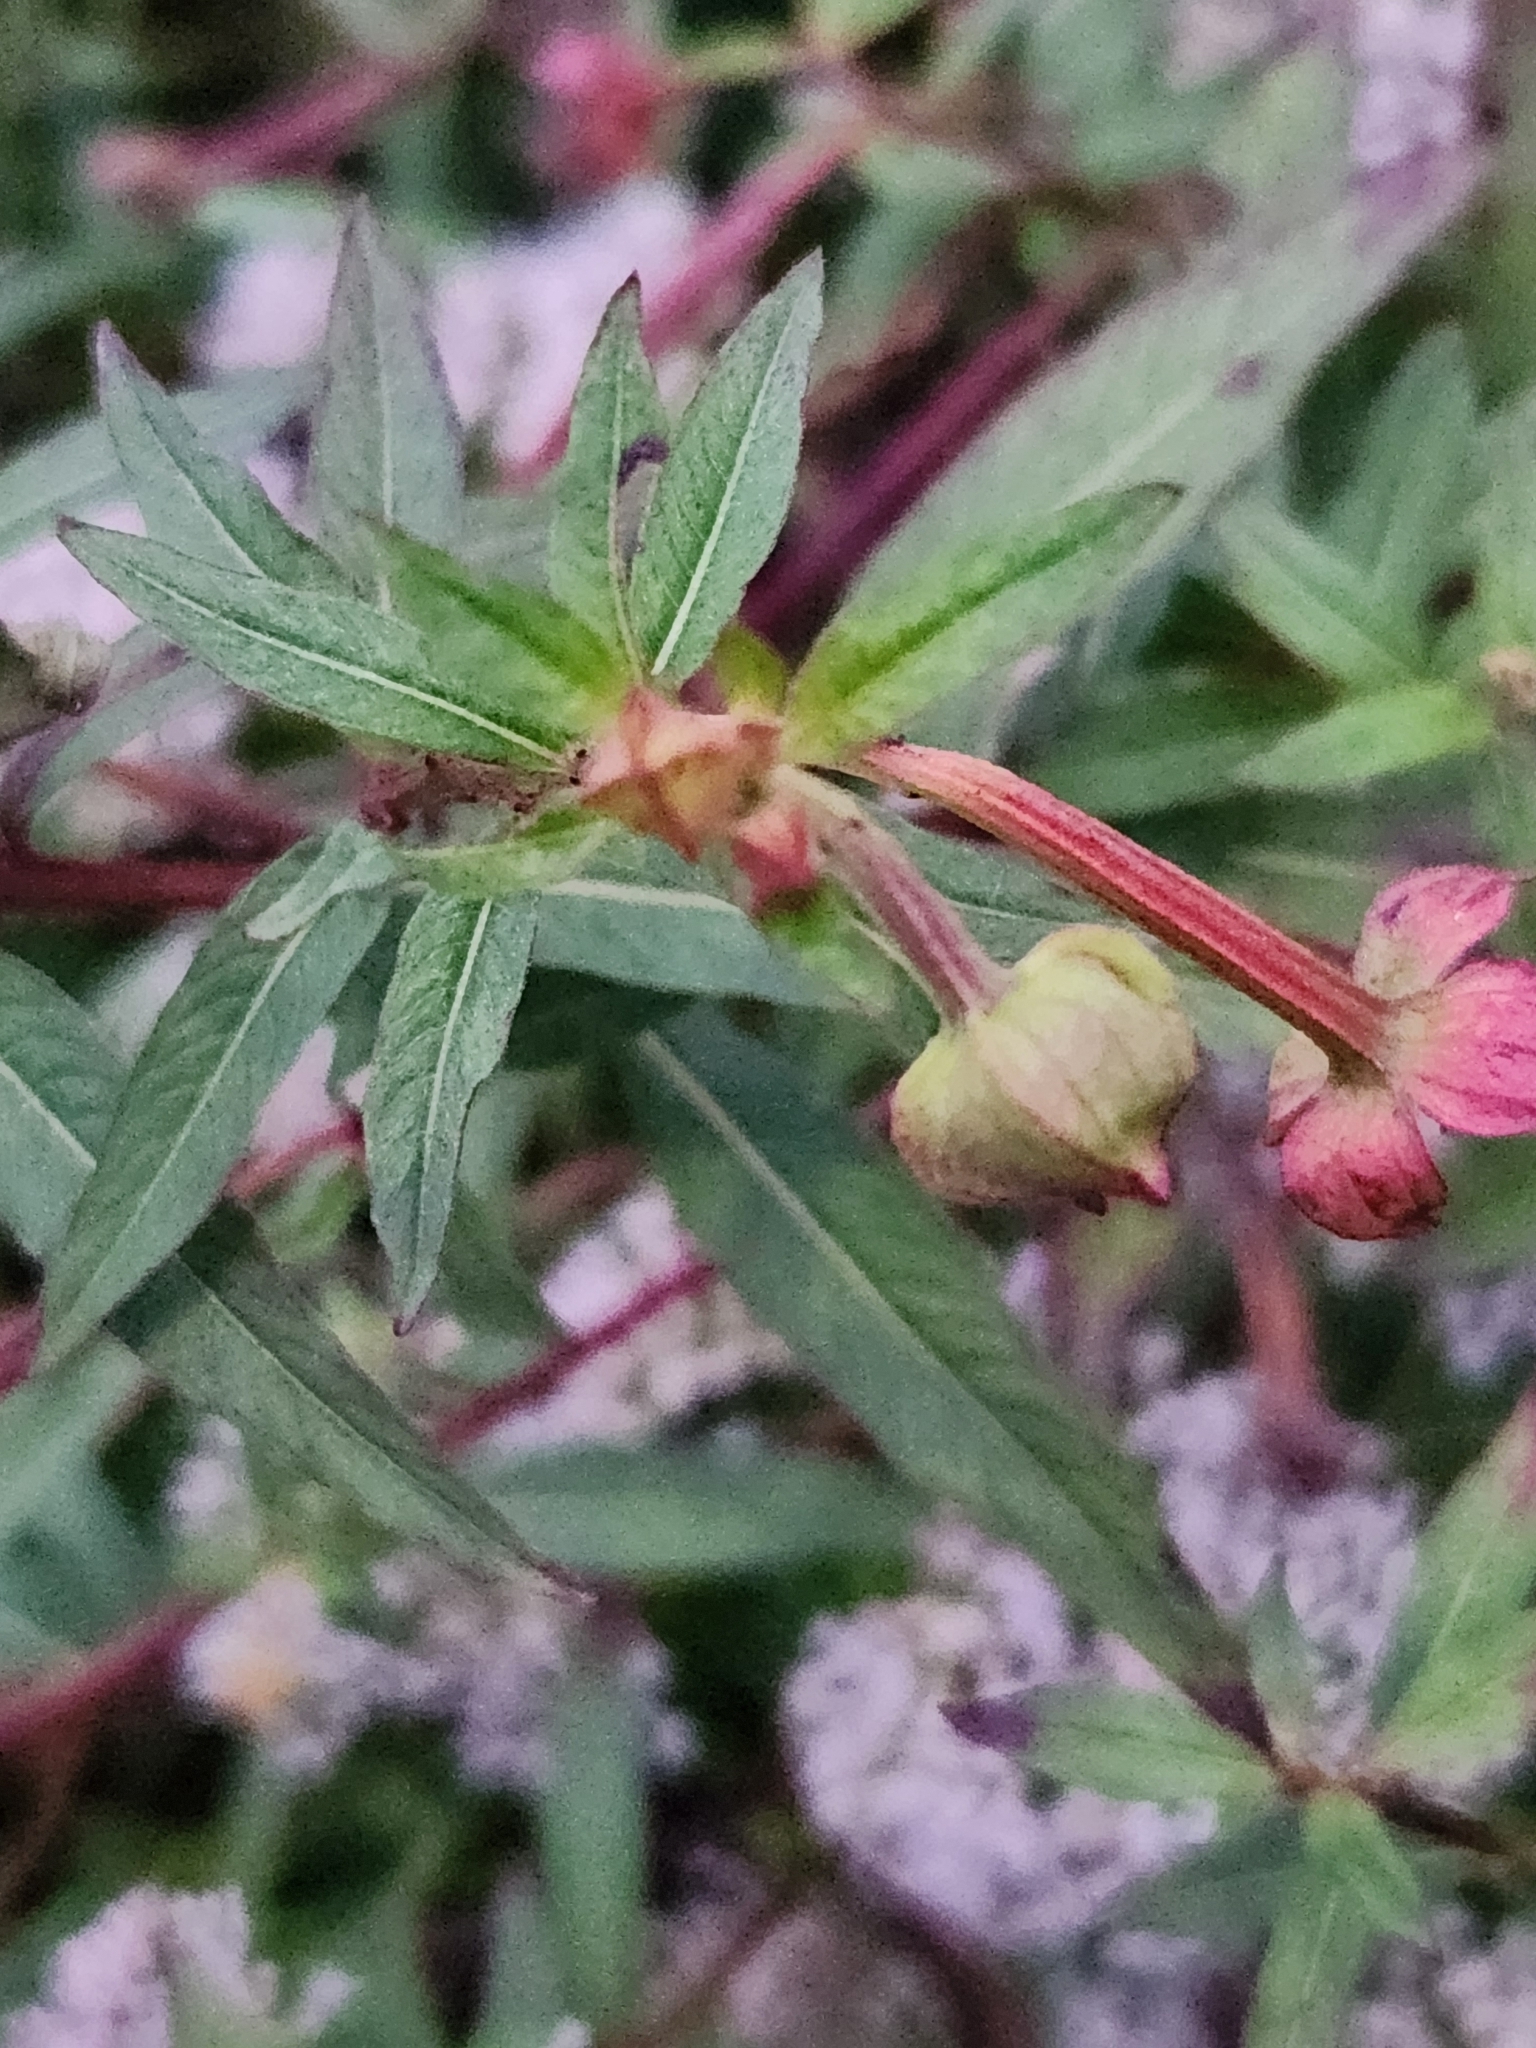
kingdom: Plantae
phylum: Tracheophyta
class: Magnoliopsida
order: Myrtales
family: Onagraceae
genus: Ludwigia
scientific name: Ludwigia octovalvis
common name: Water-primrose
